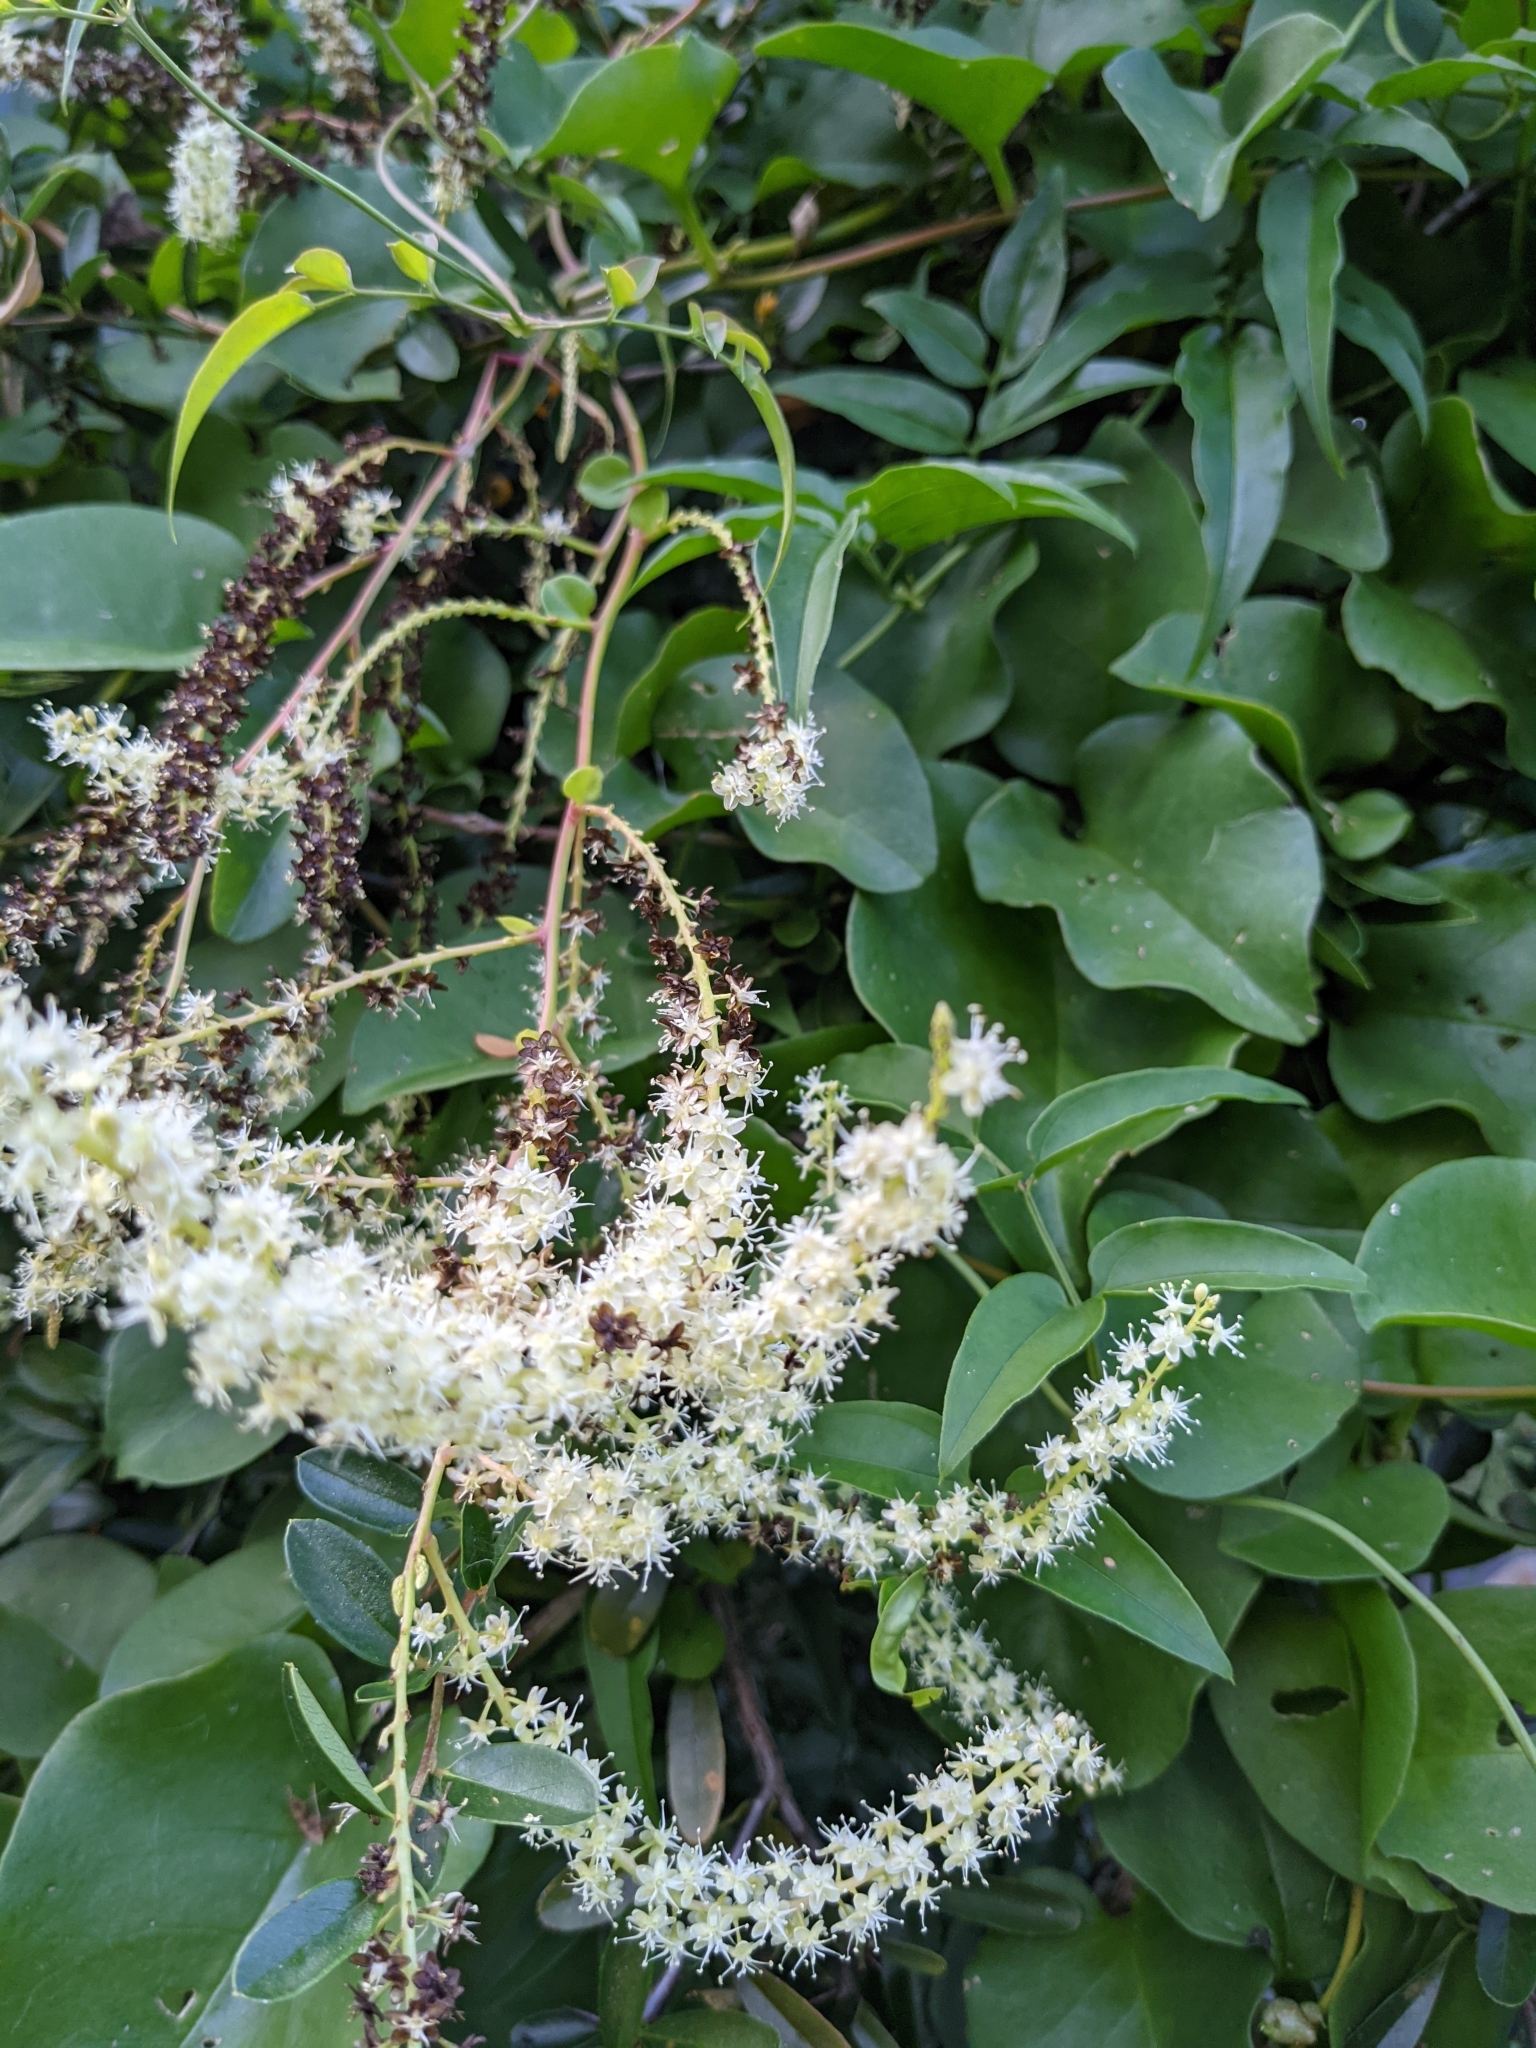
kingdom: Plantae
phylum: Tracheophyta
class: Magnoliopsida
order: Caryophyllales
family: Basellaceae
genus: Anredera
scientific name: Anredera cordifolia
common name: Heartleaf madeiravine
